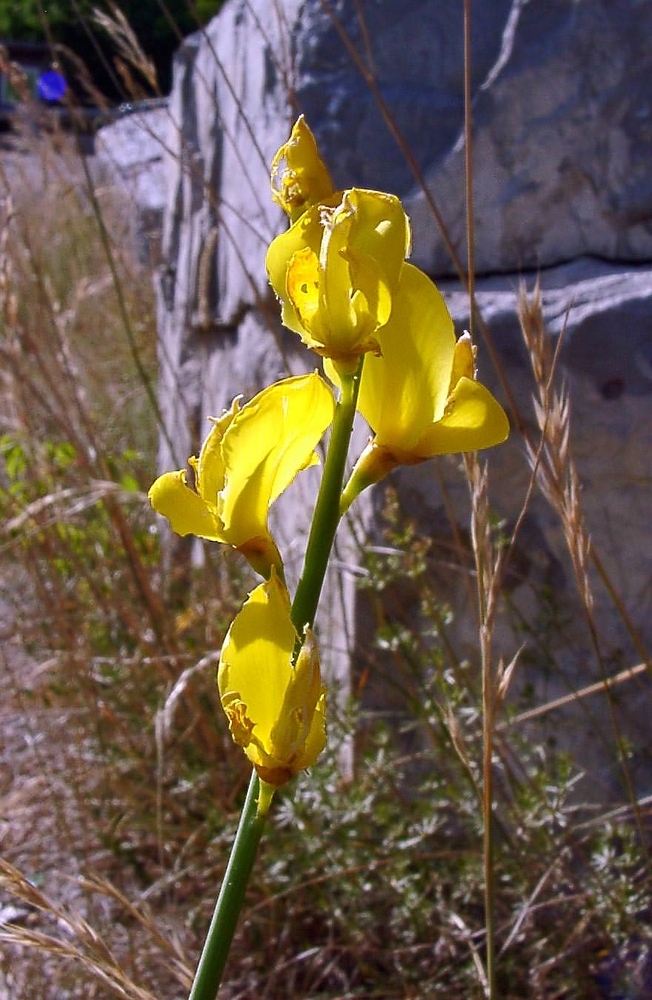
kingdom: Plantae
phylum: Tracheophyta
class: Magnoliopsida
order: Fabales
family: Fabaceae
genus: Spartium
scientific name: Spartium junceum
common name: Spanish broom
